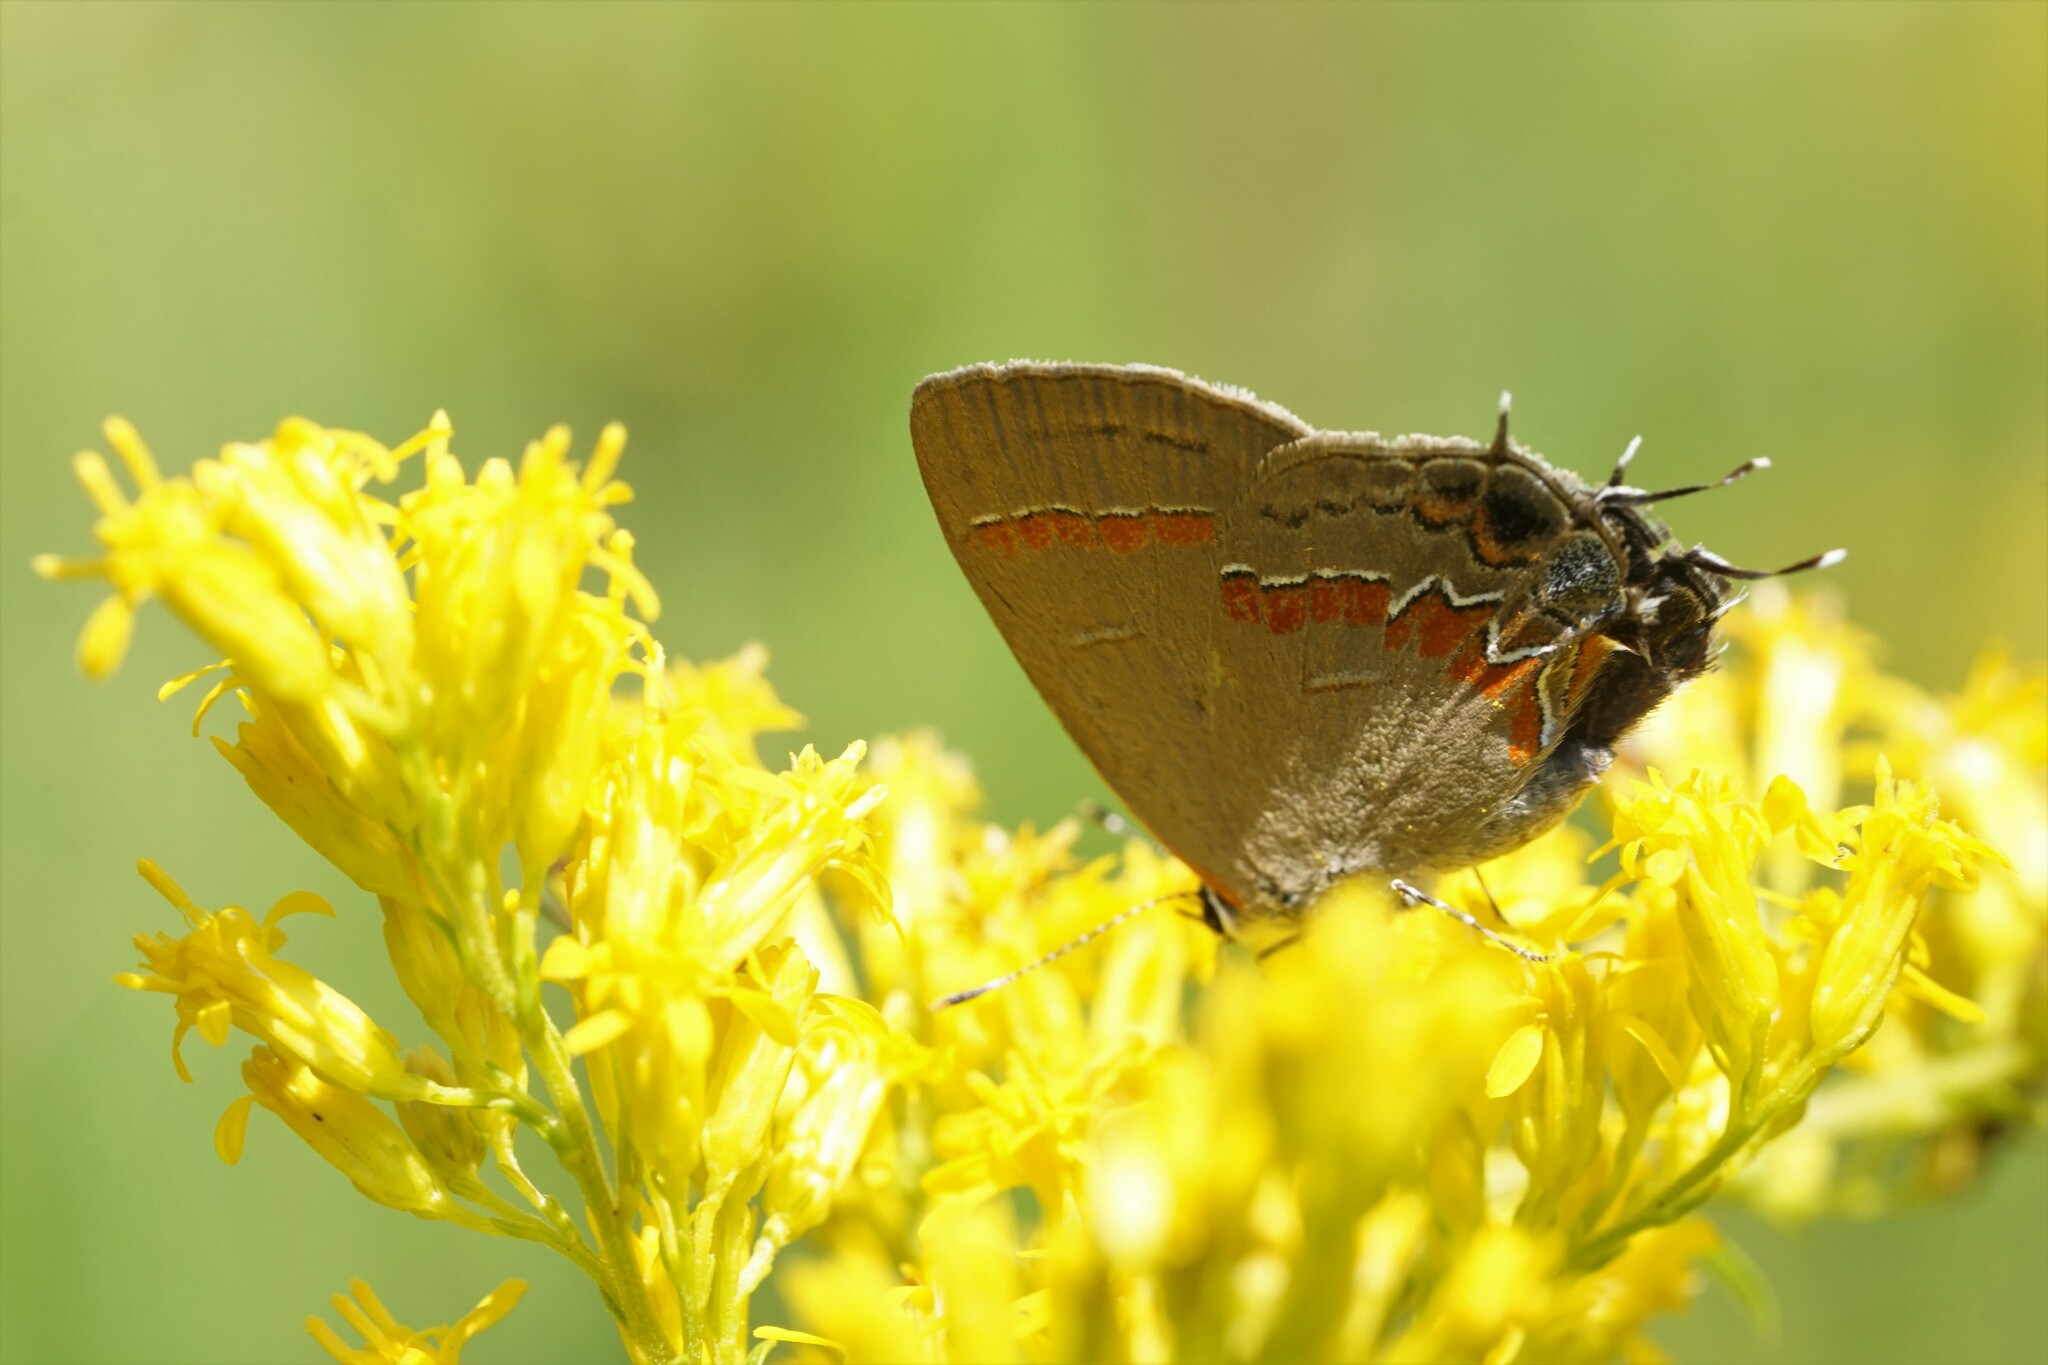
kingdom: Animalia
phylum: Arthropoda
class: Insecta
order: Lepidoptera
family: Lycaenidae
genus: Calycopis
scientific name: Calycopis cecrops
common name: Red-banded hairstreak
